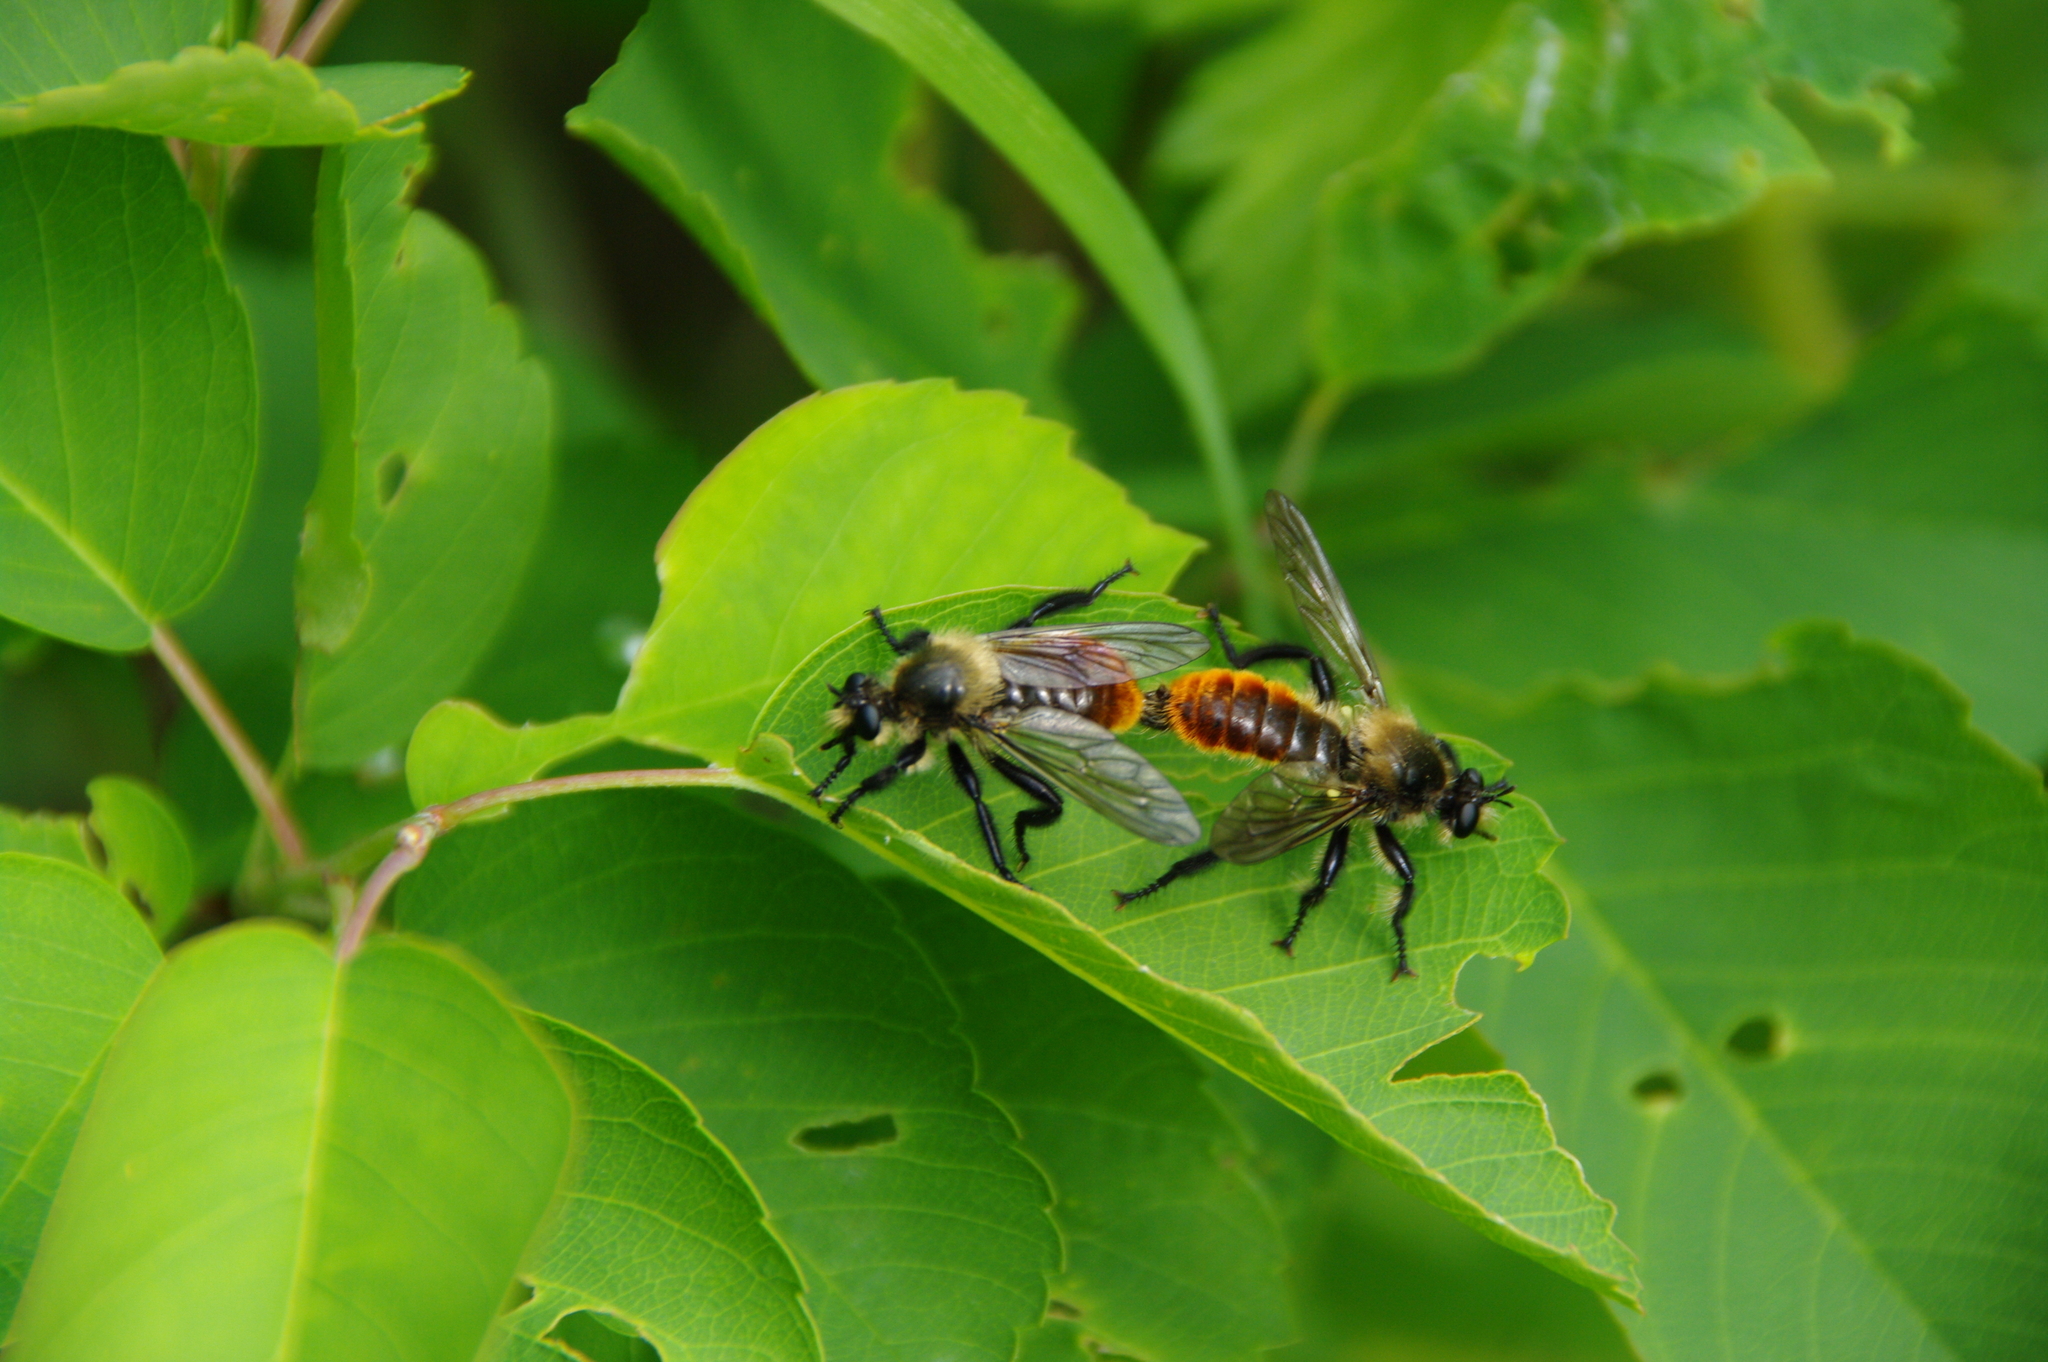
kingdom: Animalia
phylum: Arthropoda
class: Insecta
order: Diptera
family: Asilidae
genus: Laphria
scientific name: Laphria janus
